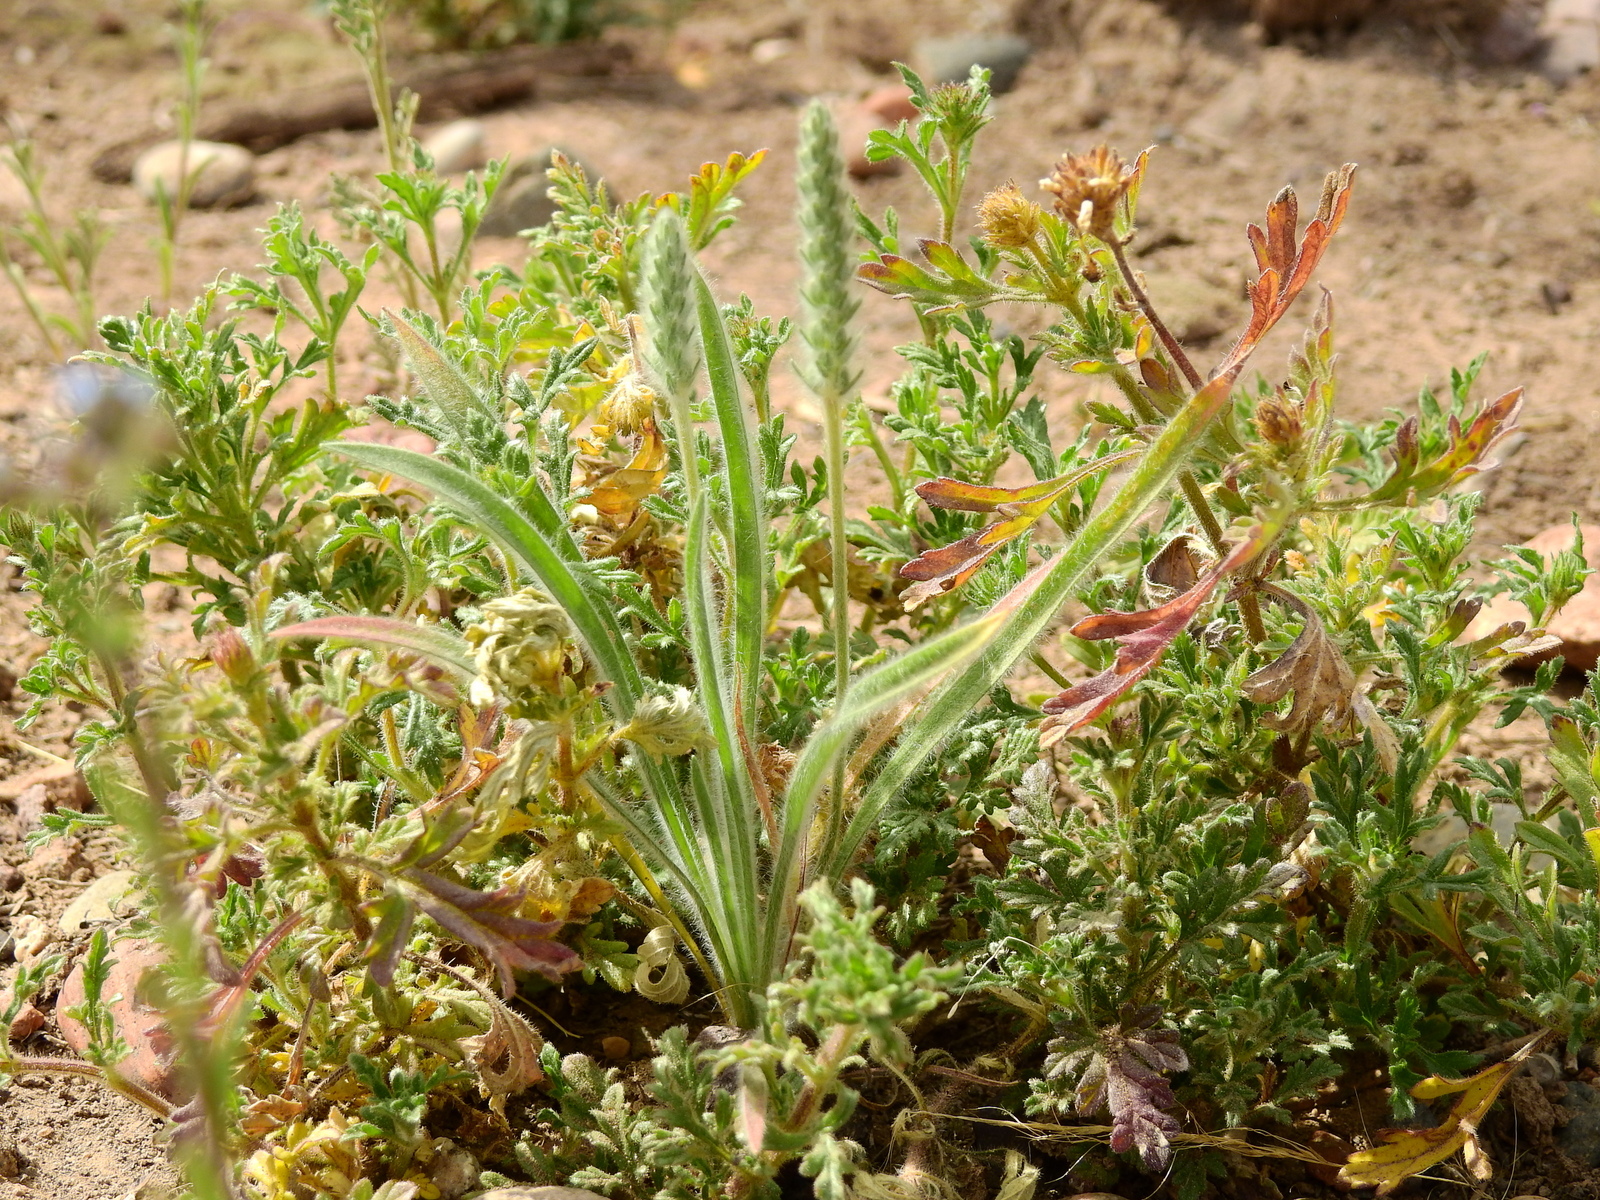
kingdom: Plantae
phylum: Tracheophyta
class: Magnoliopsida
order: Lamiales
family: Plantaginaceae
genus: Plantago
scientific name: Plantago patagonica
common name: Patagonia indian-wheat
